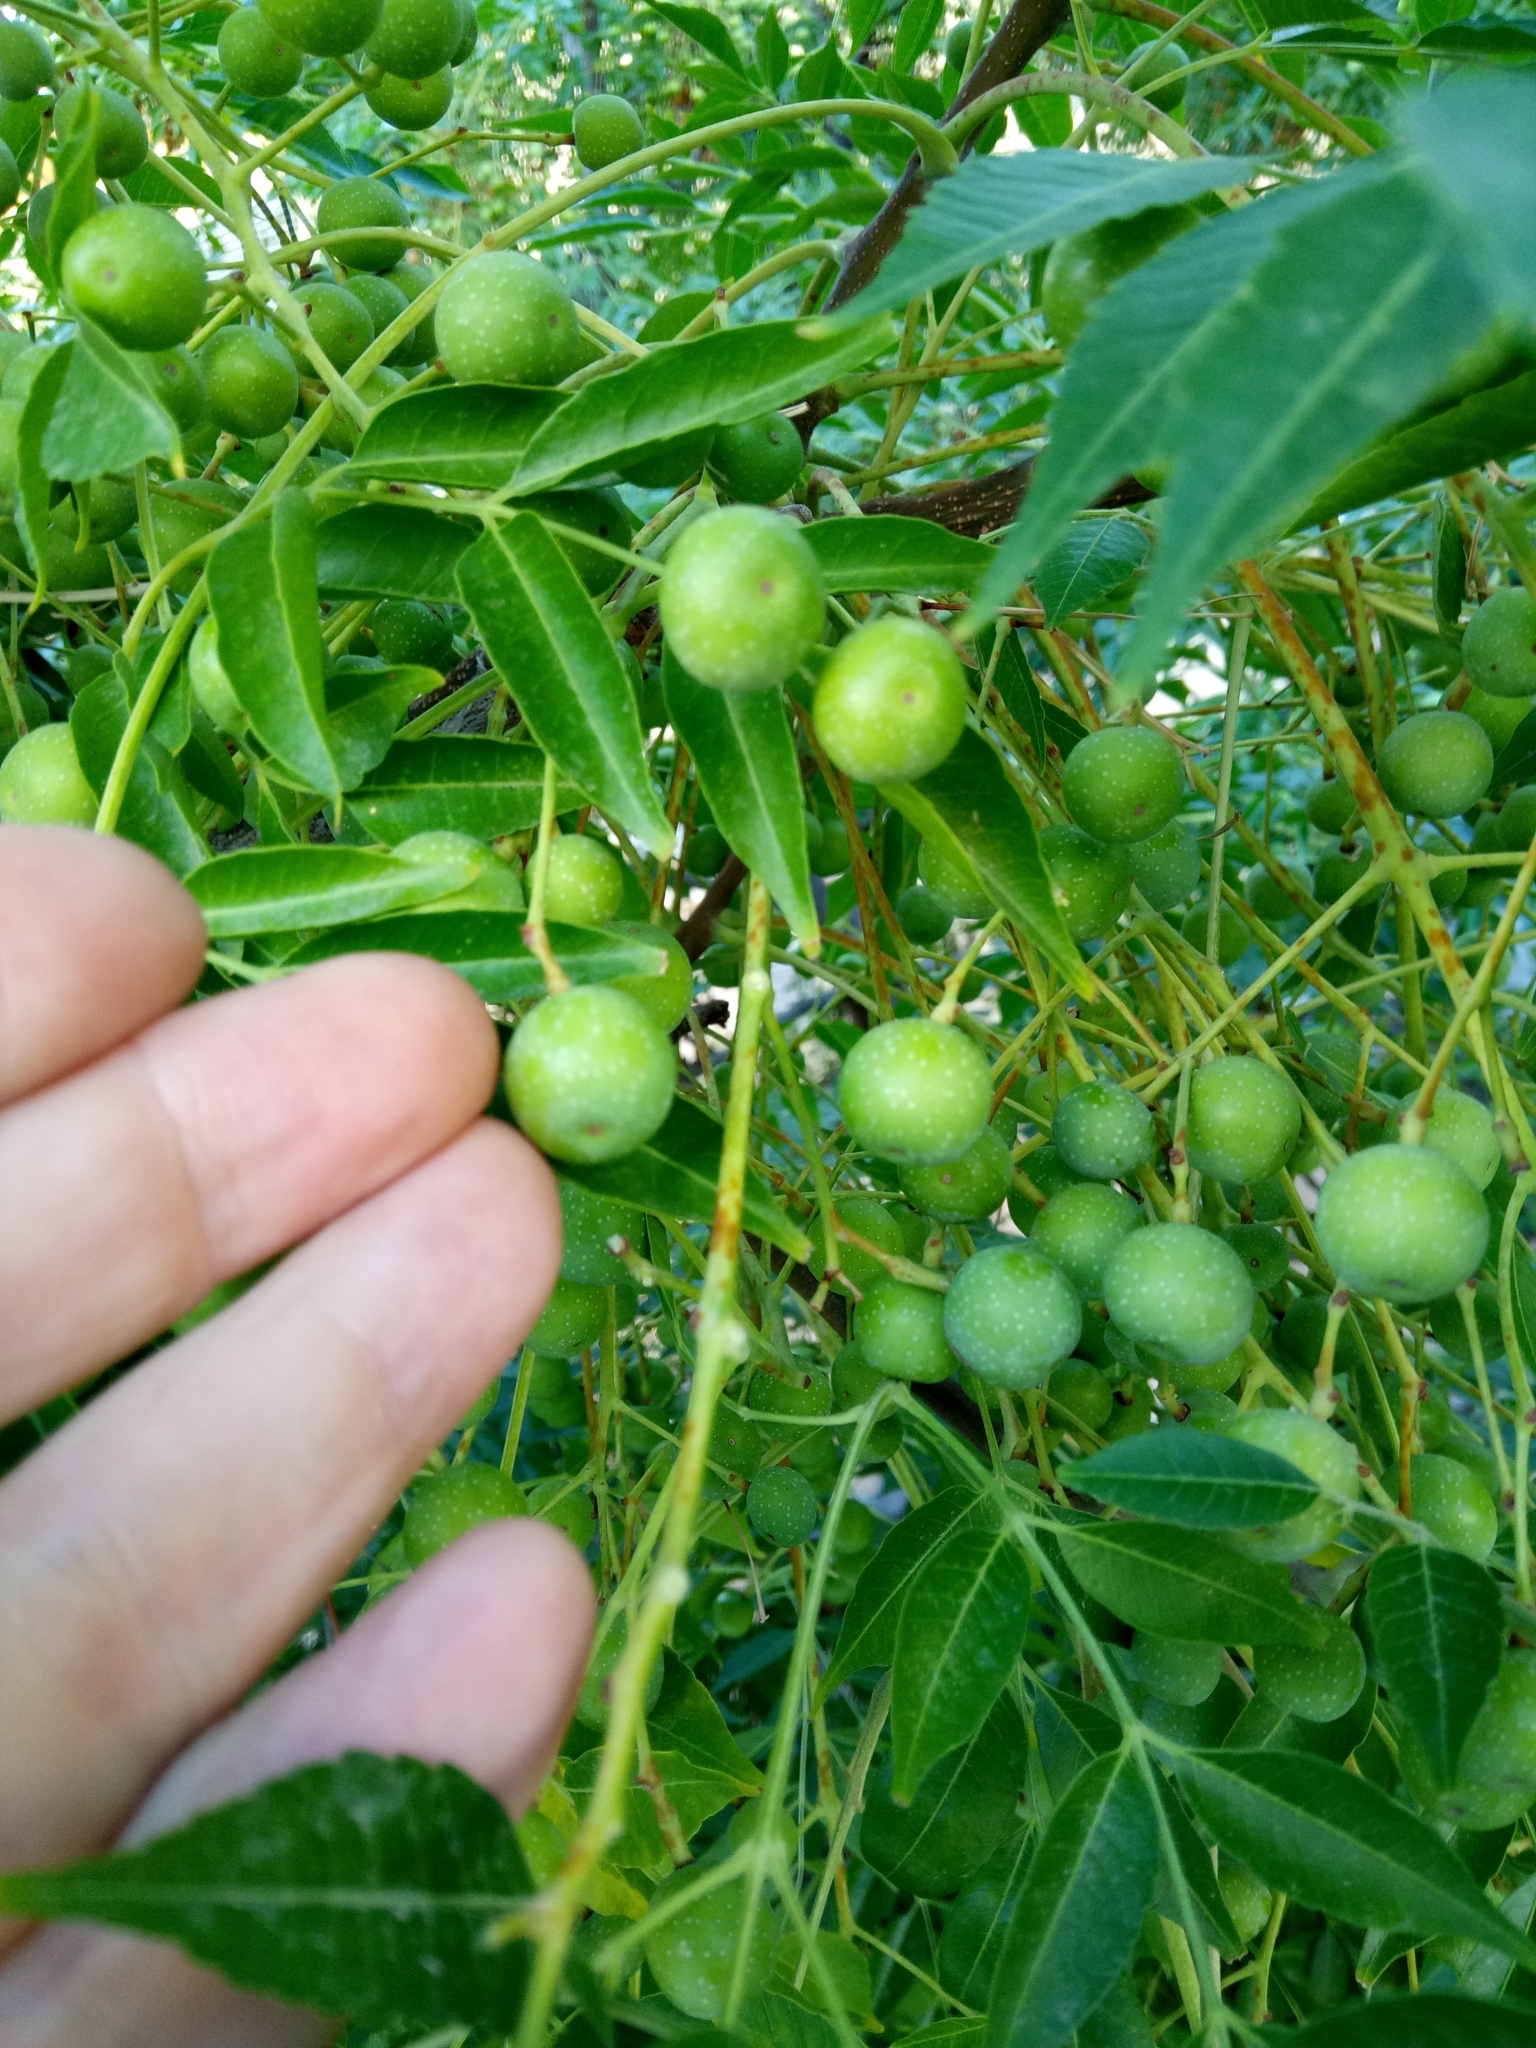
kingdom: Plantae
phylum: Tracheophyta
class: Magnoliopsida
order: Sapindales
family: Meliaceae
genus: Melia
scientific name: Melia azedarach
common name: Chinaberrytree
